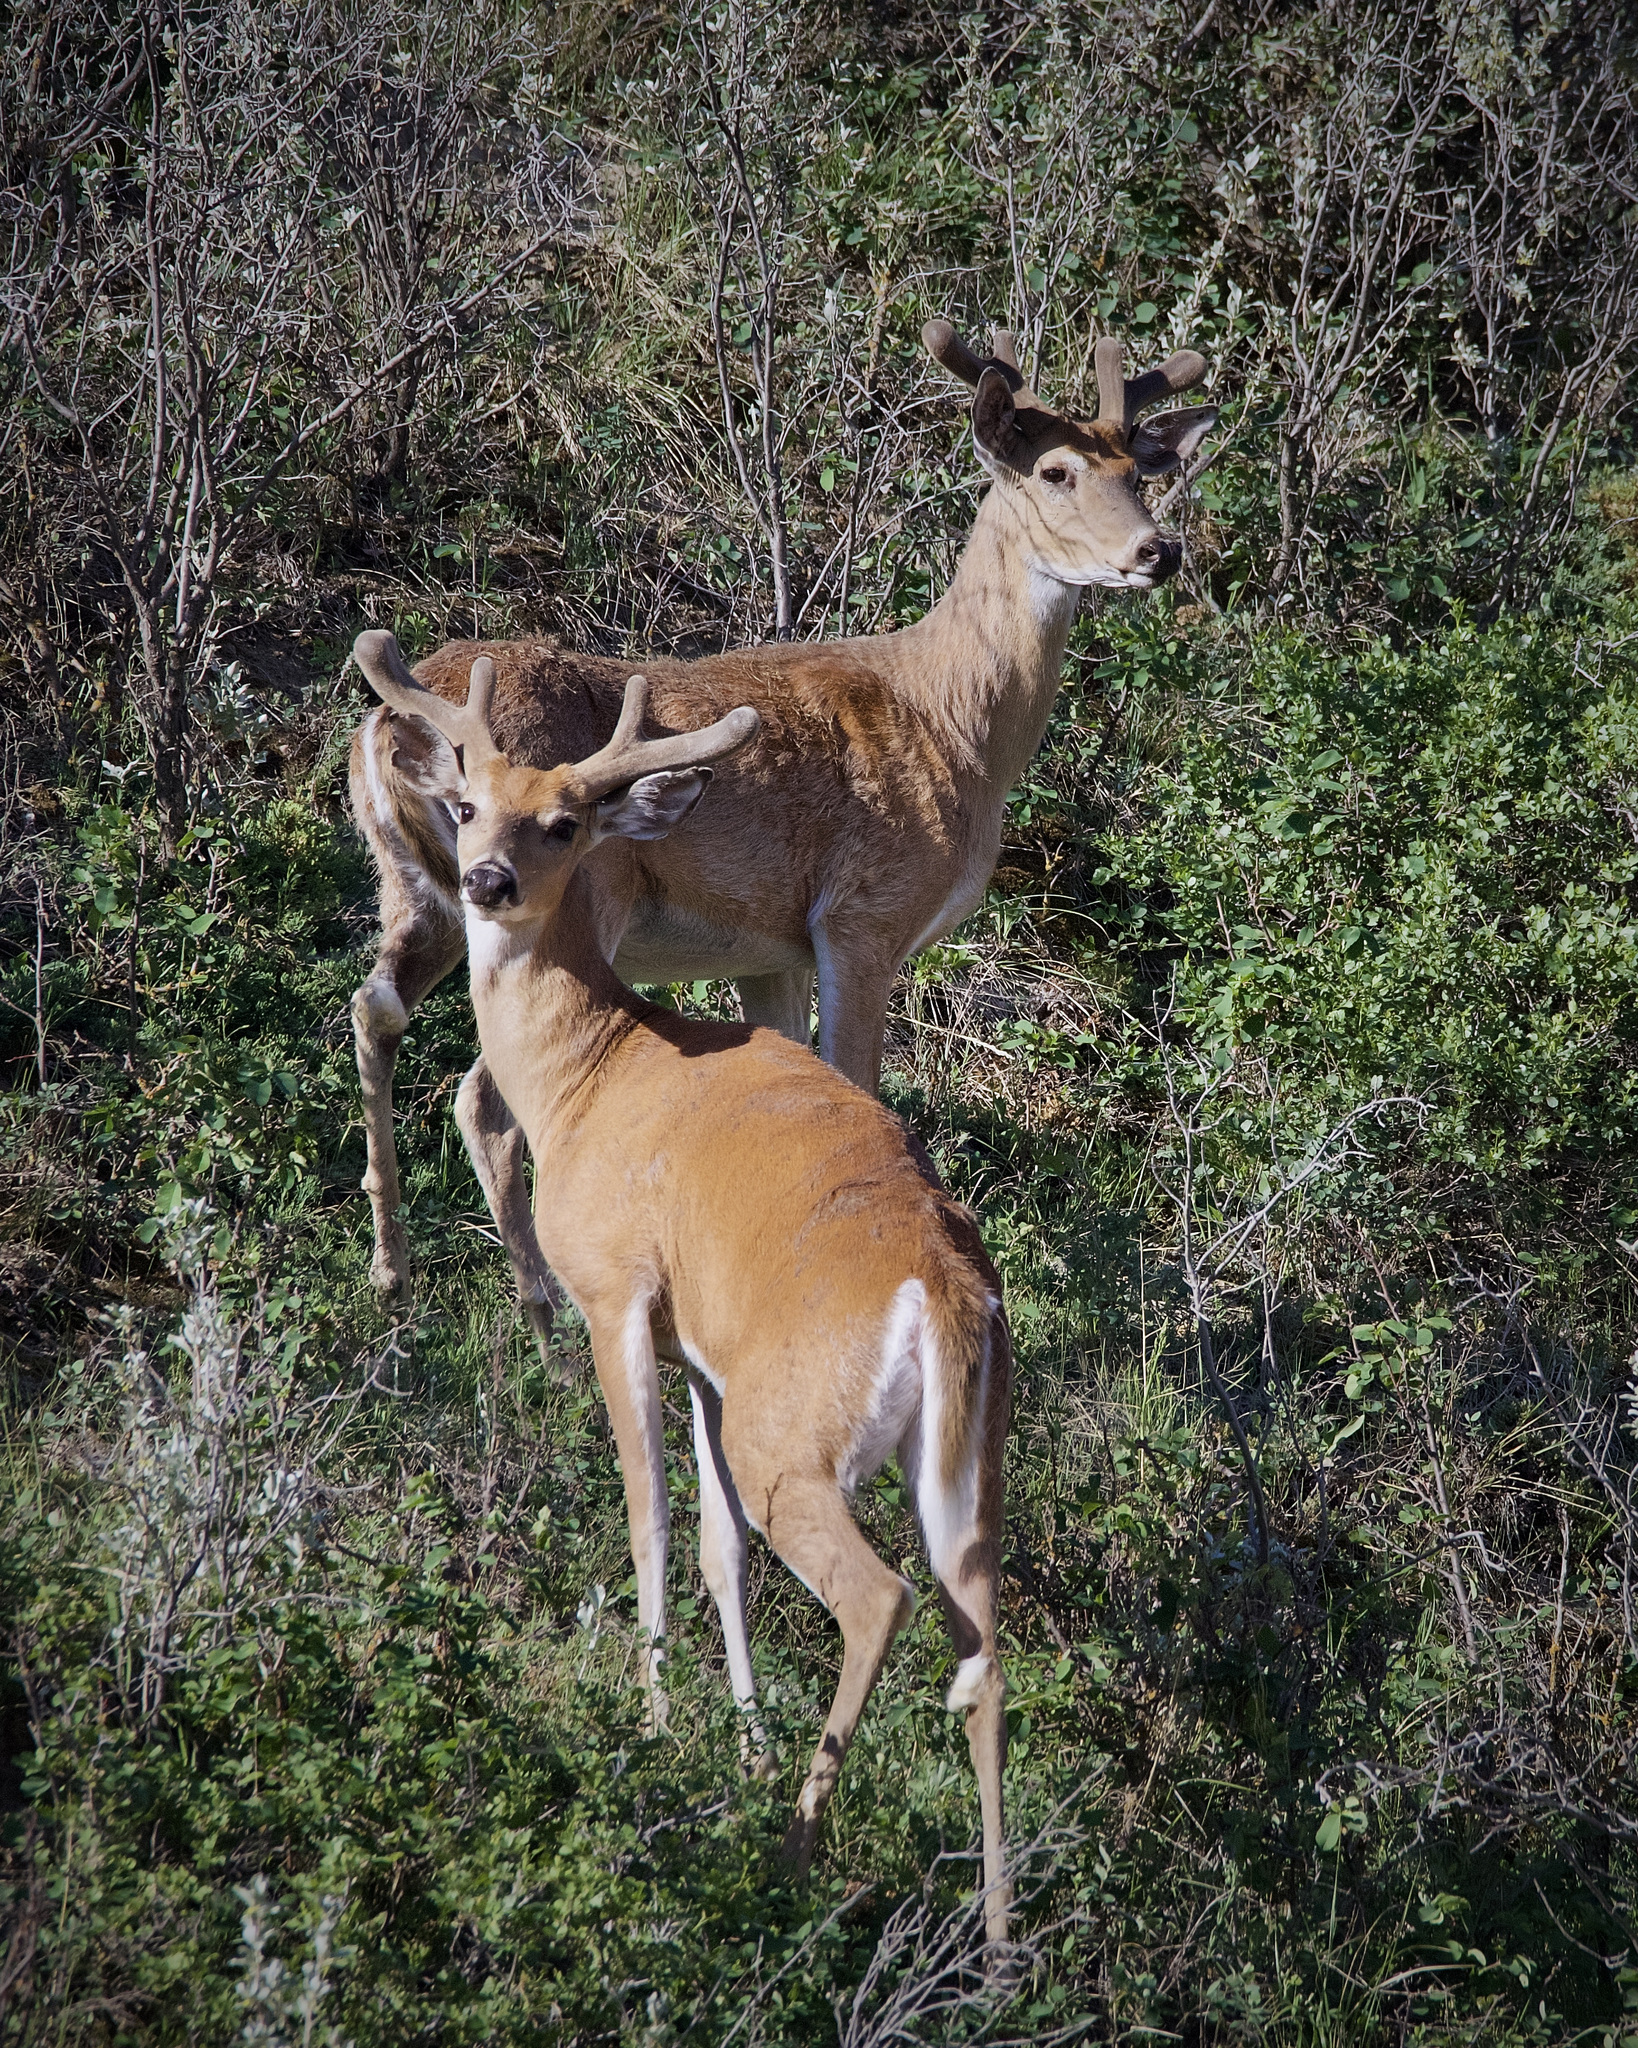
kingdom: Animalia
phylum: Chordata
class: Mammalia
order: Artiodactyla
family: Cervidae
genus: Odocoileus
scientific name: Odocoileus virginianus
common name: White-tailed deer
